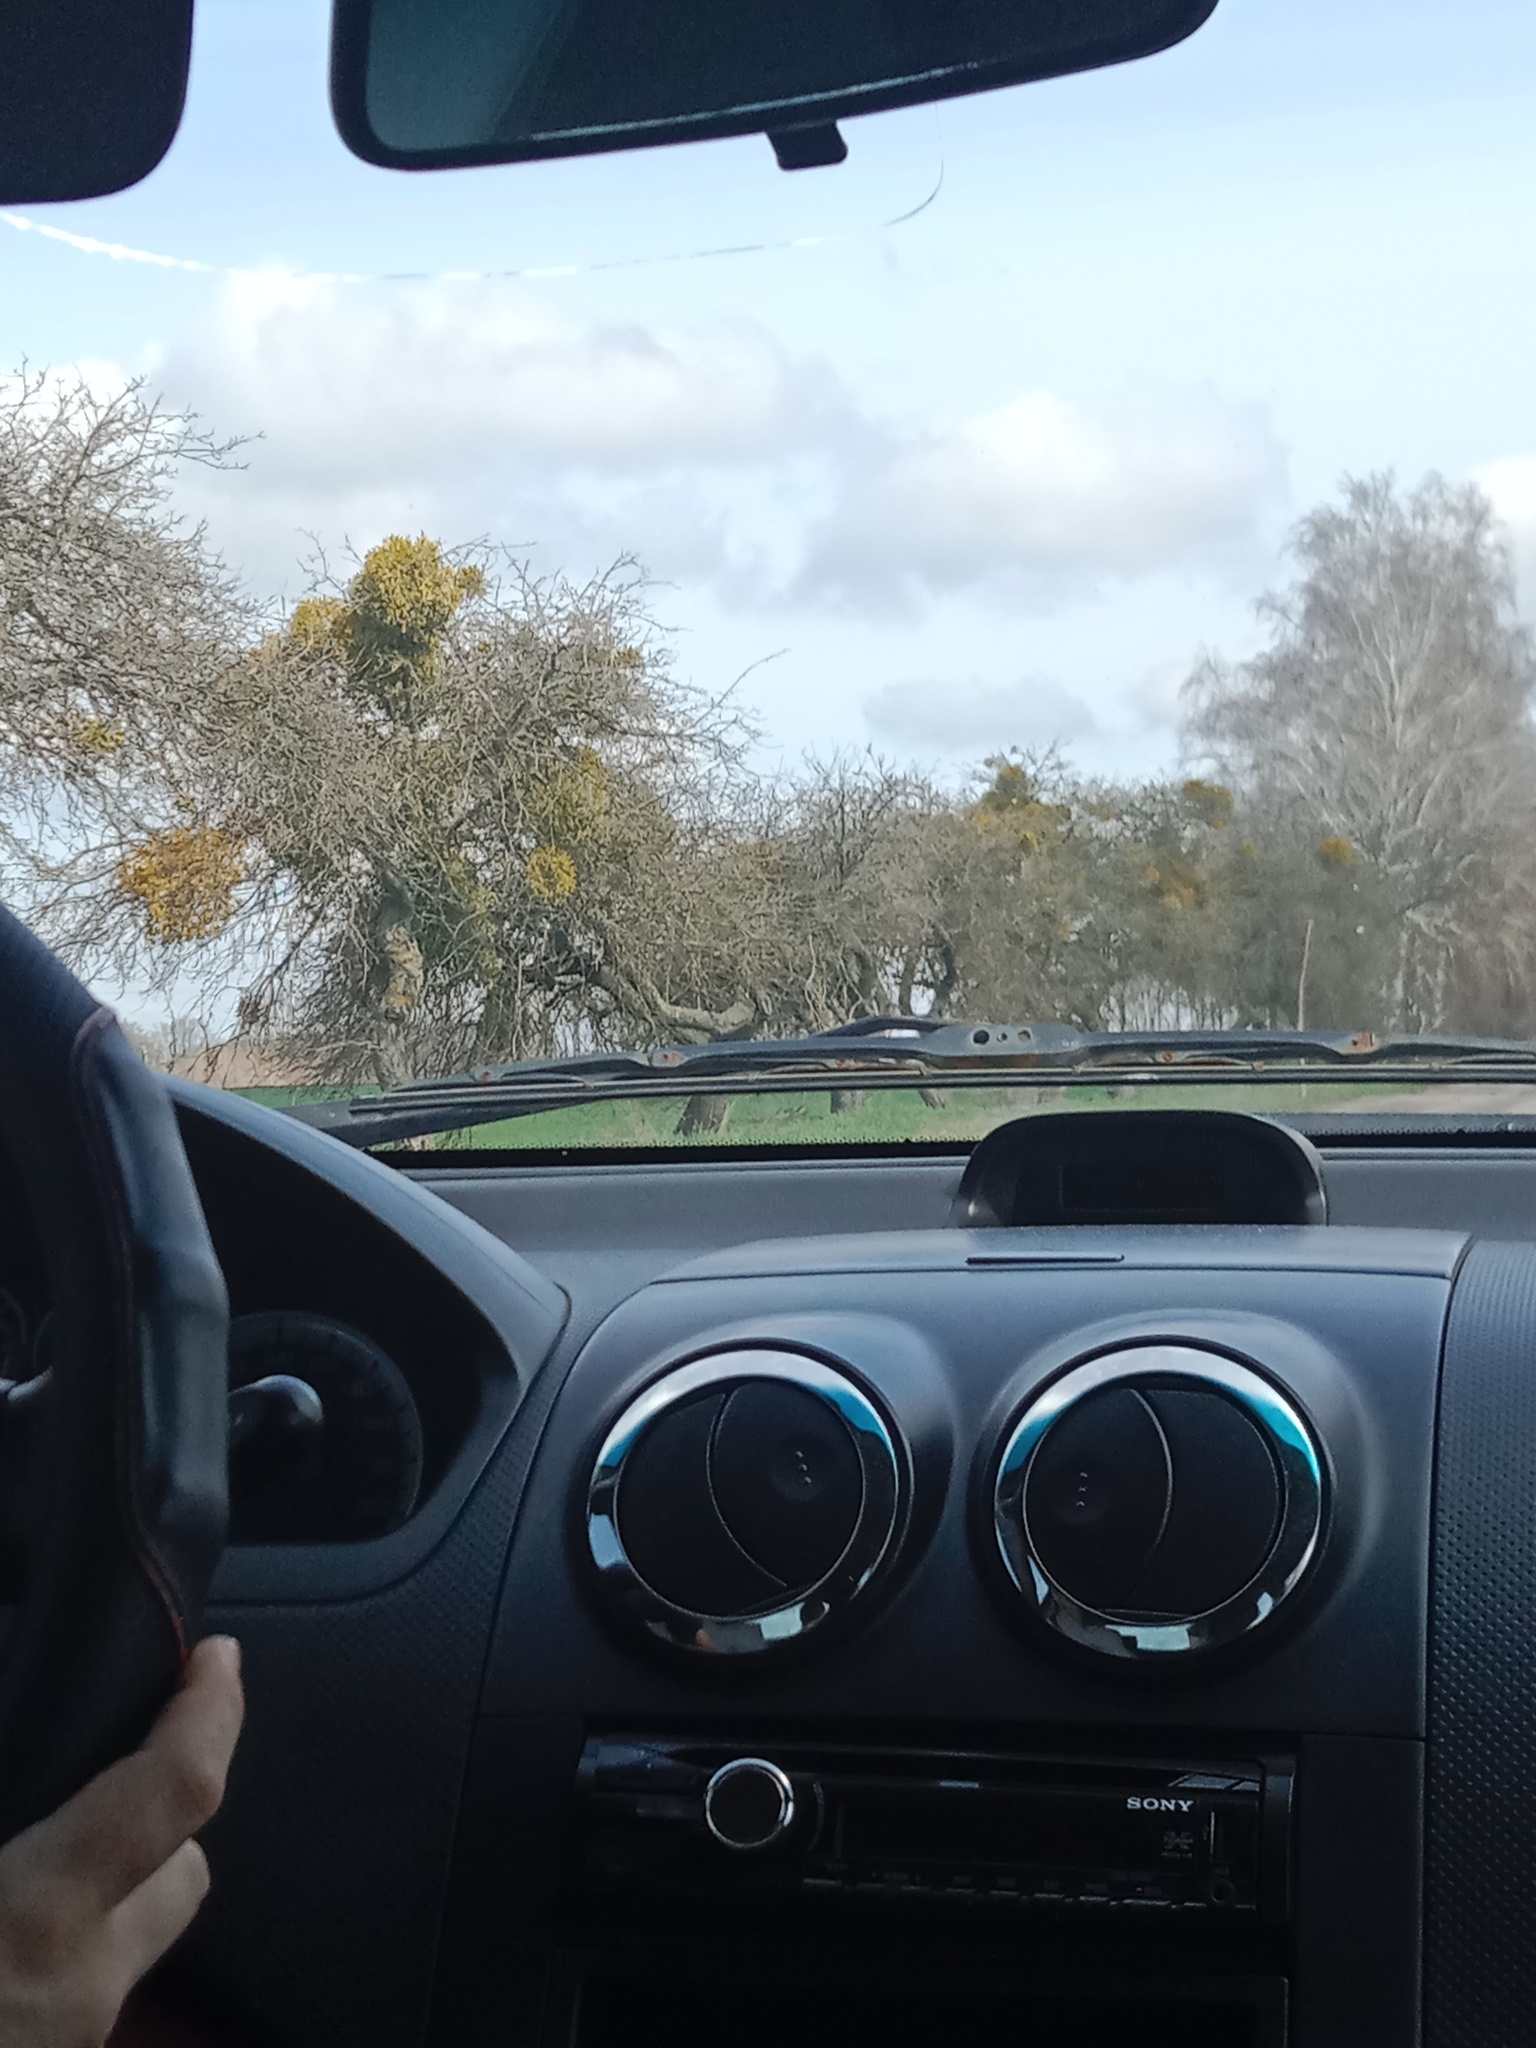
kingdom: Plantae
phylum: Tracheophyta
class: Magnoliopsida
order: Santalales
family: Viscaceae
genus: Viscum
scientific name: Viscum album
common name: Mistletoe
